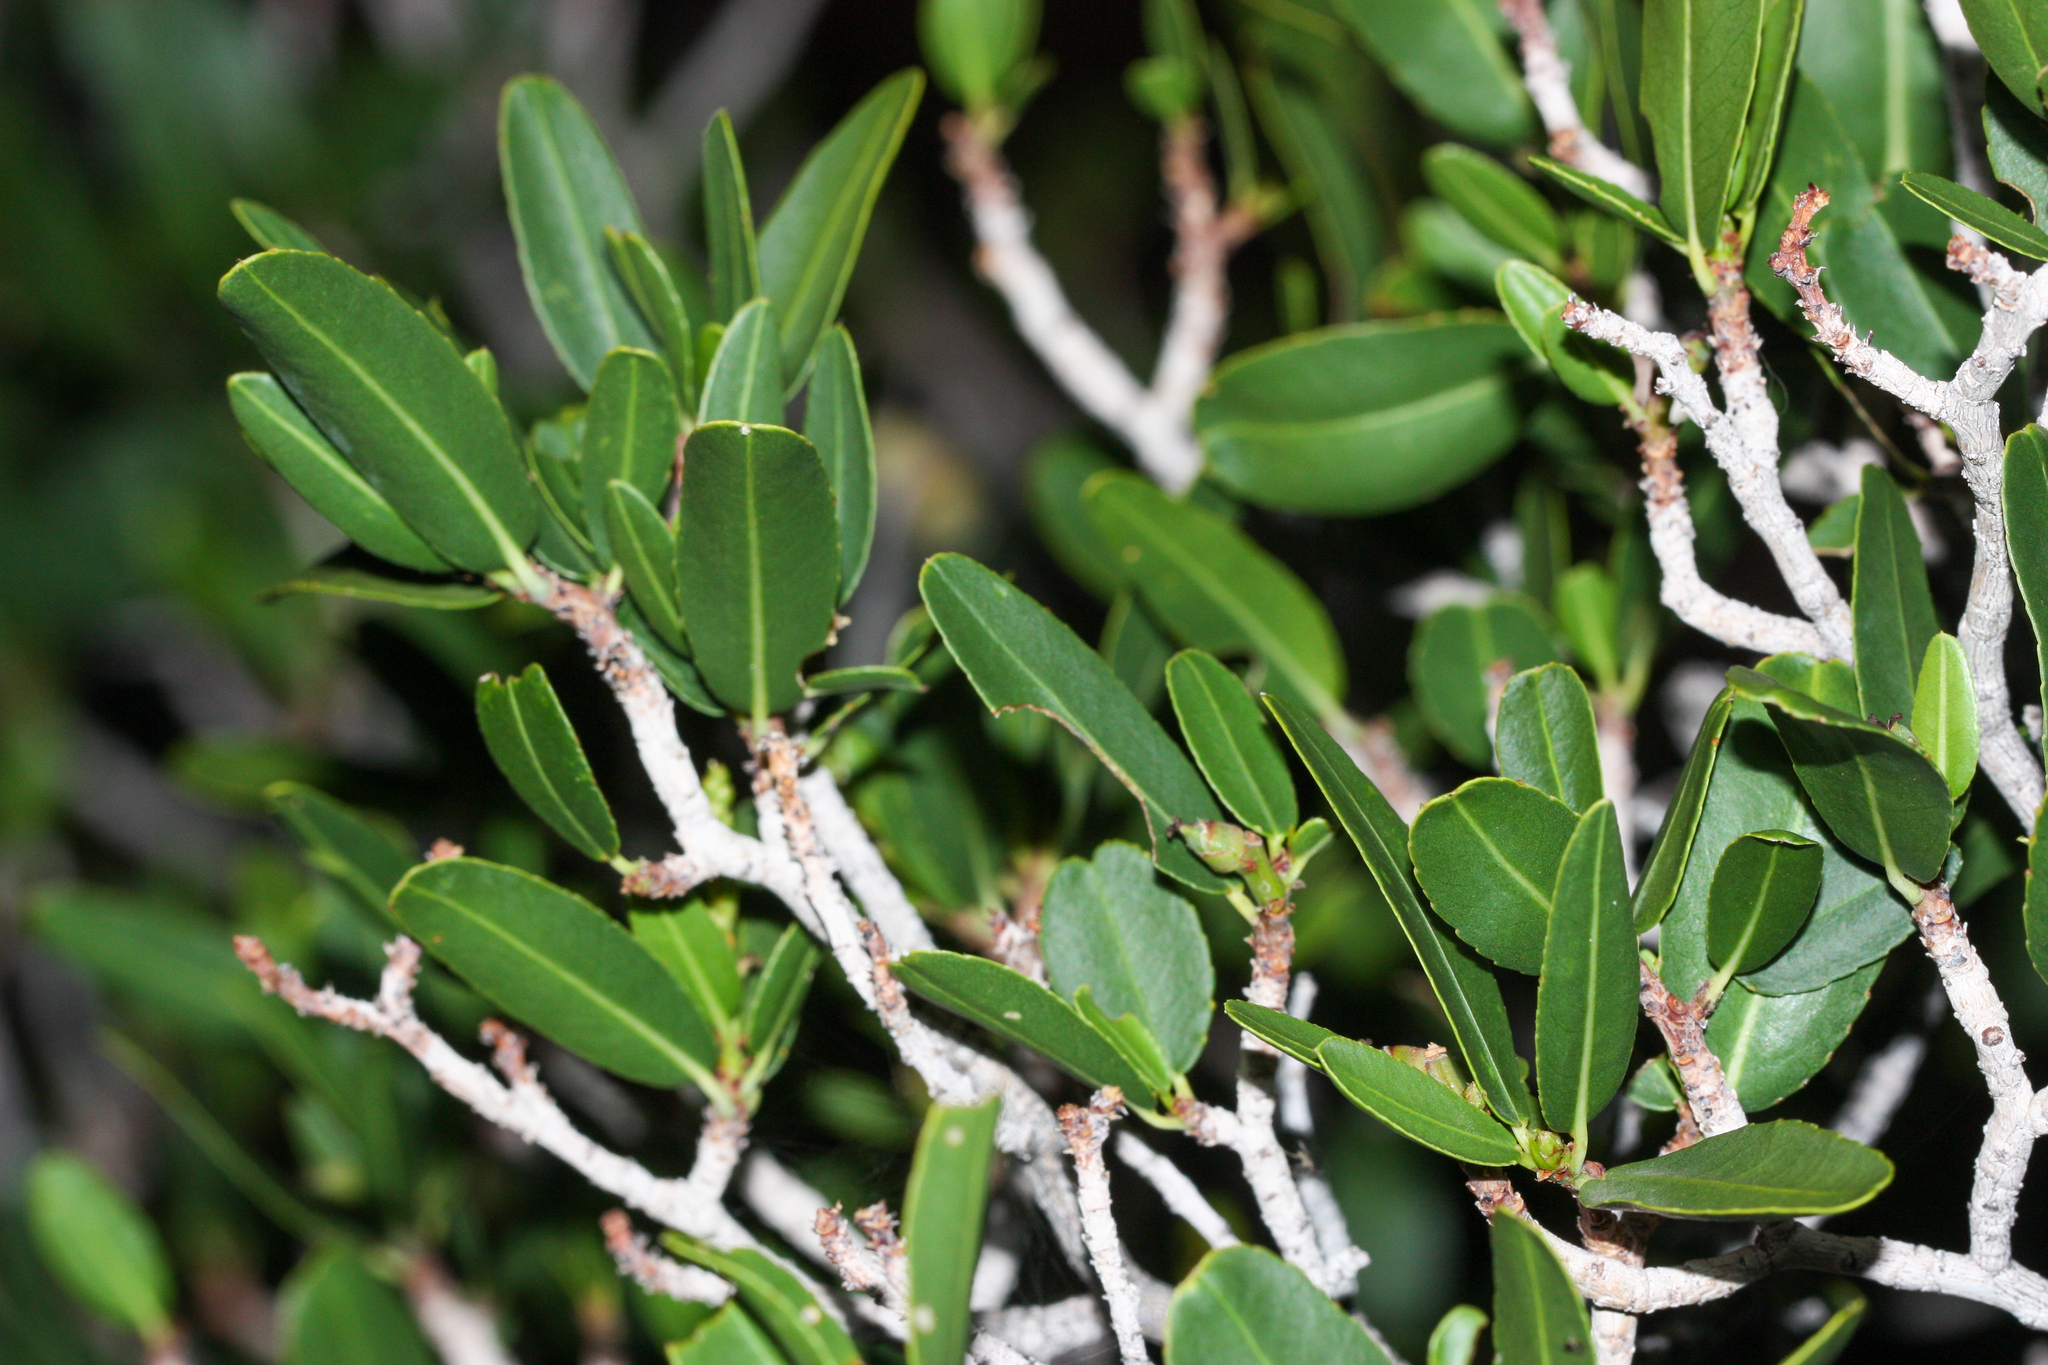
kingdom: Plantae
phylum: Tracheophyta
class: Magnoliopsida
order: Malpighiales
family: Euphorbiaceae
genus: Pleradenophora
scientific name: Pleradenophora bilocularis
